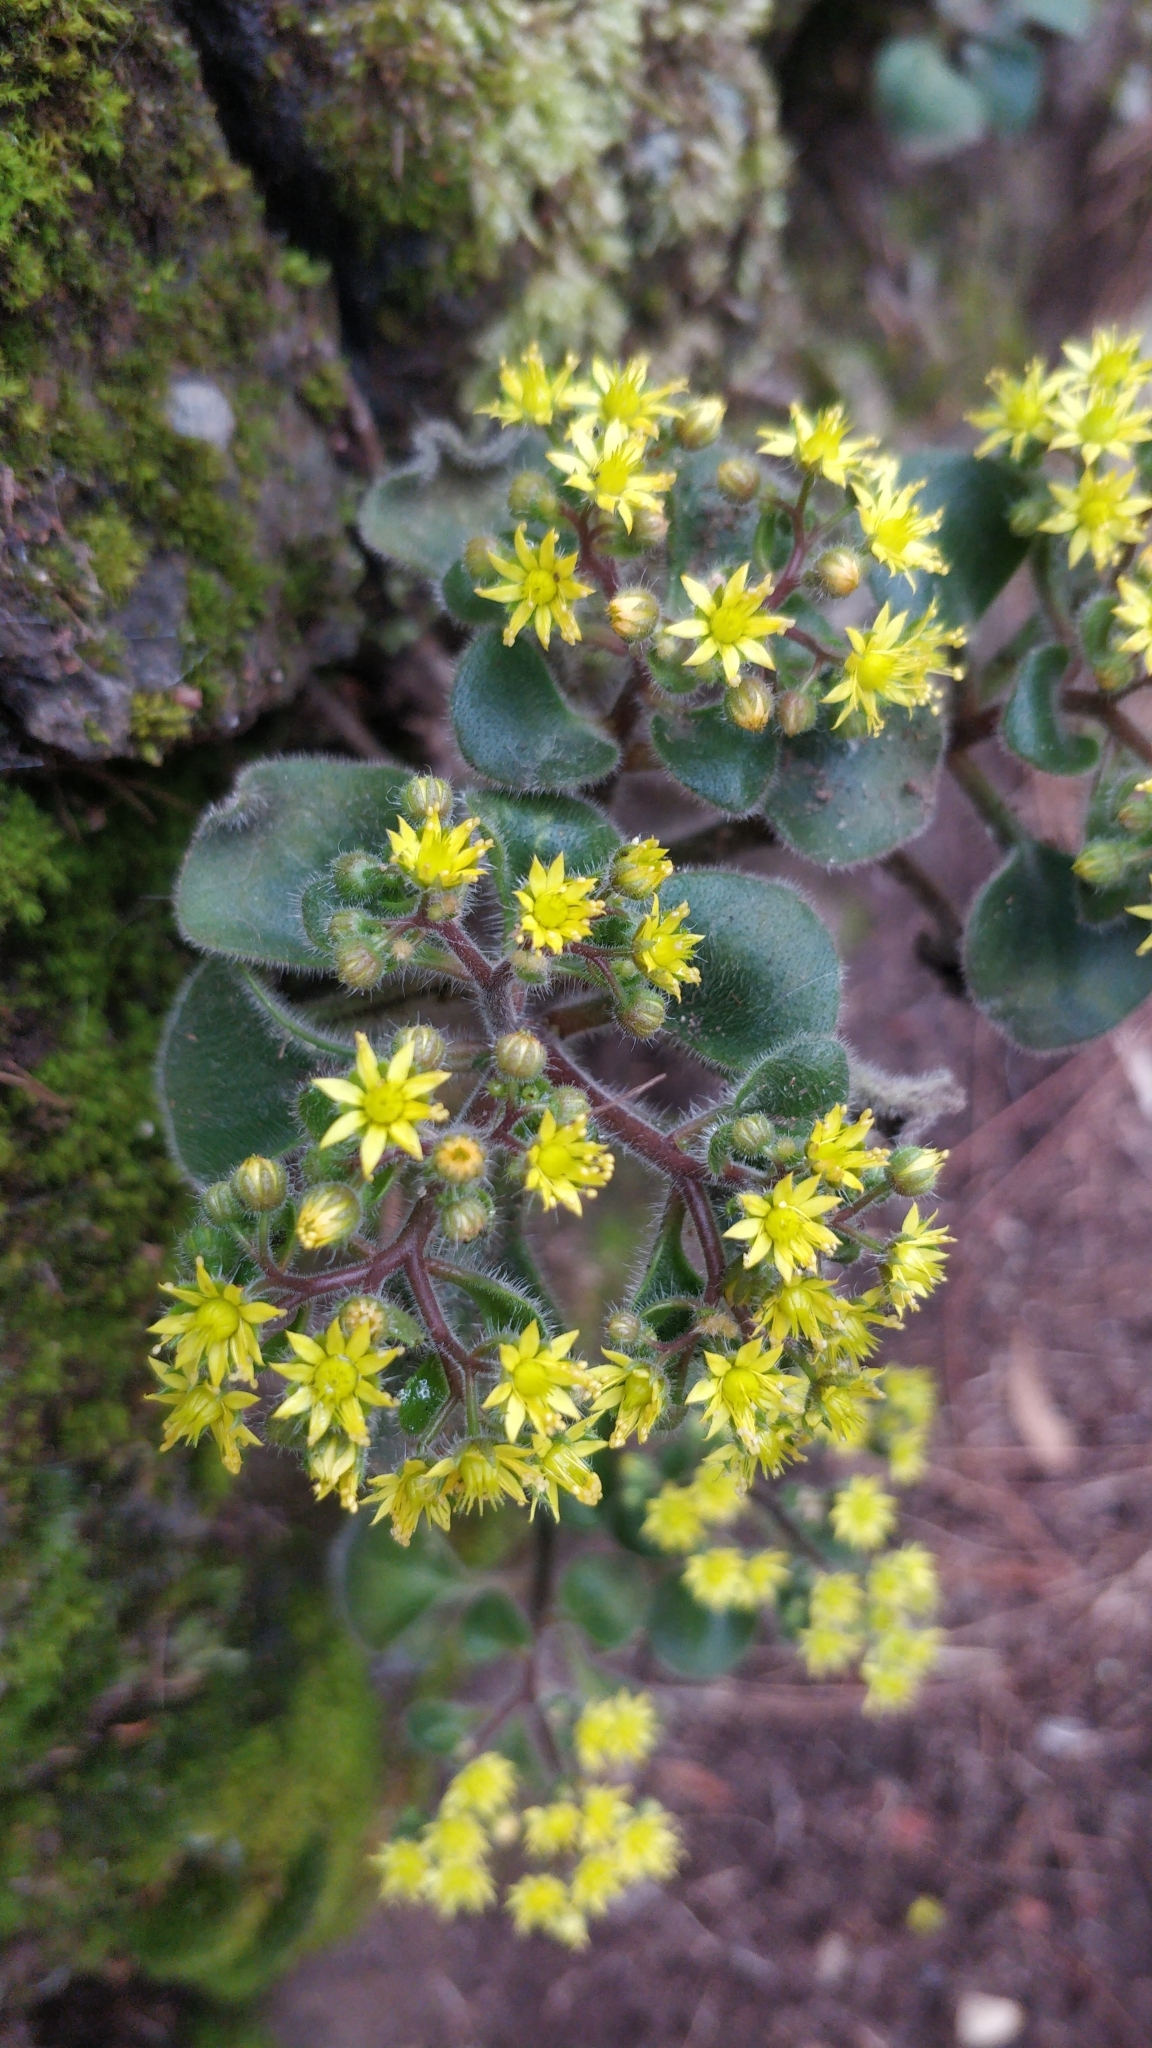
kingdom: Plantae
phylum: Tracheophyta
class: Magnoliopsida
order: Saxifragales
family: Crassulaceae
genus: Aichryson
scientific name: Aichryson laxum
